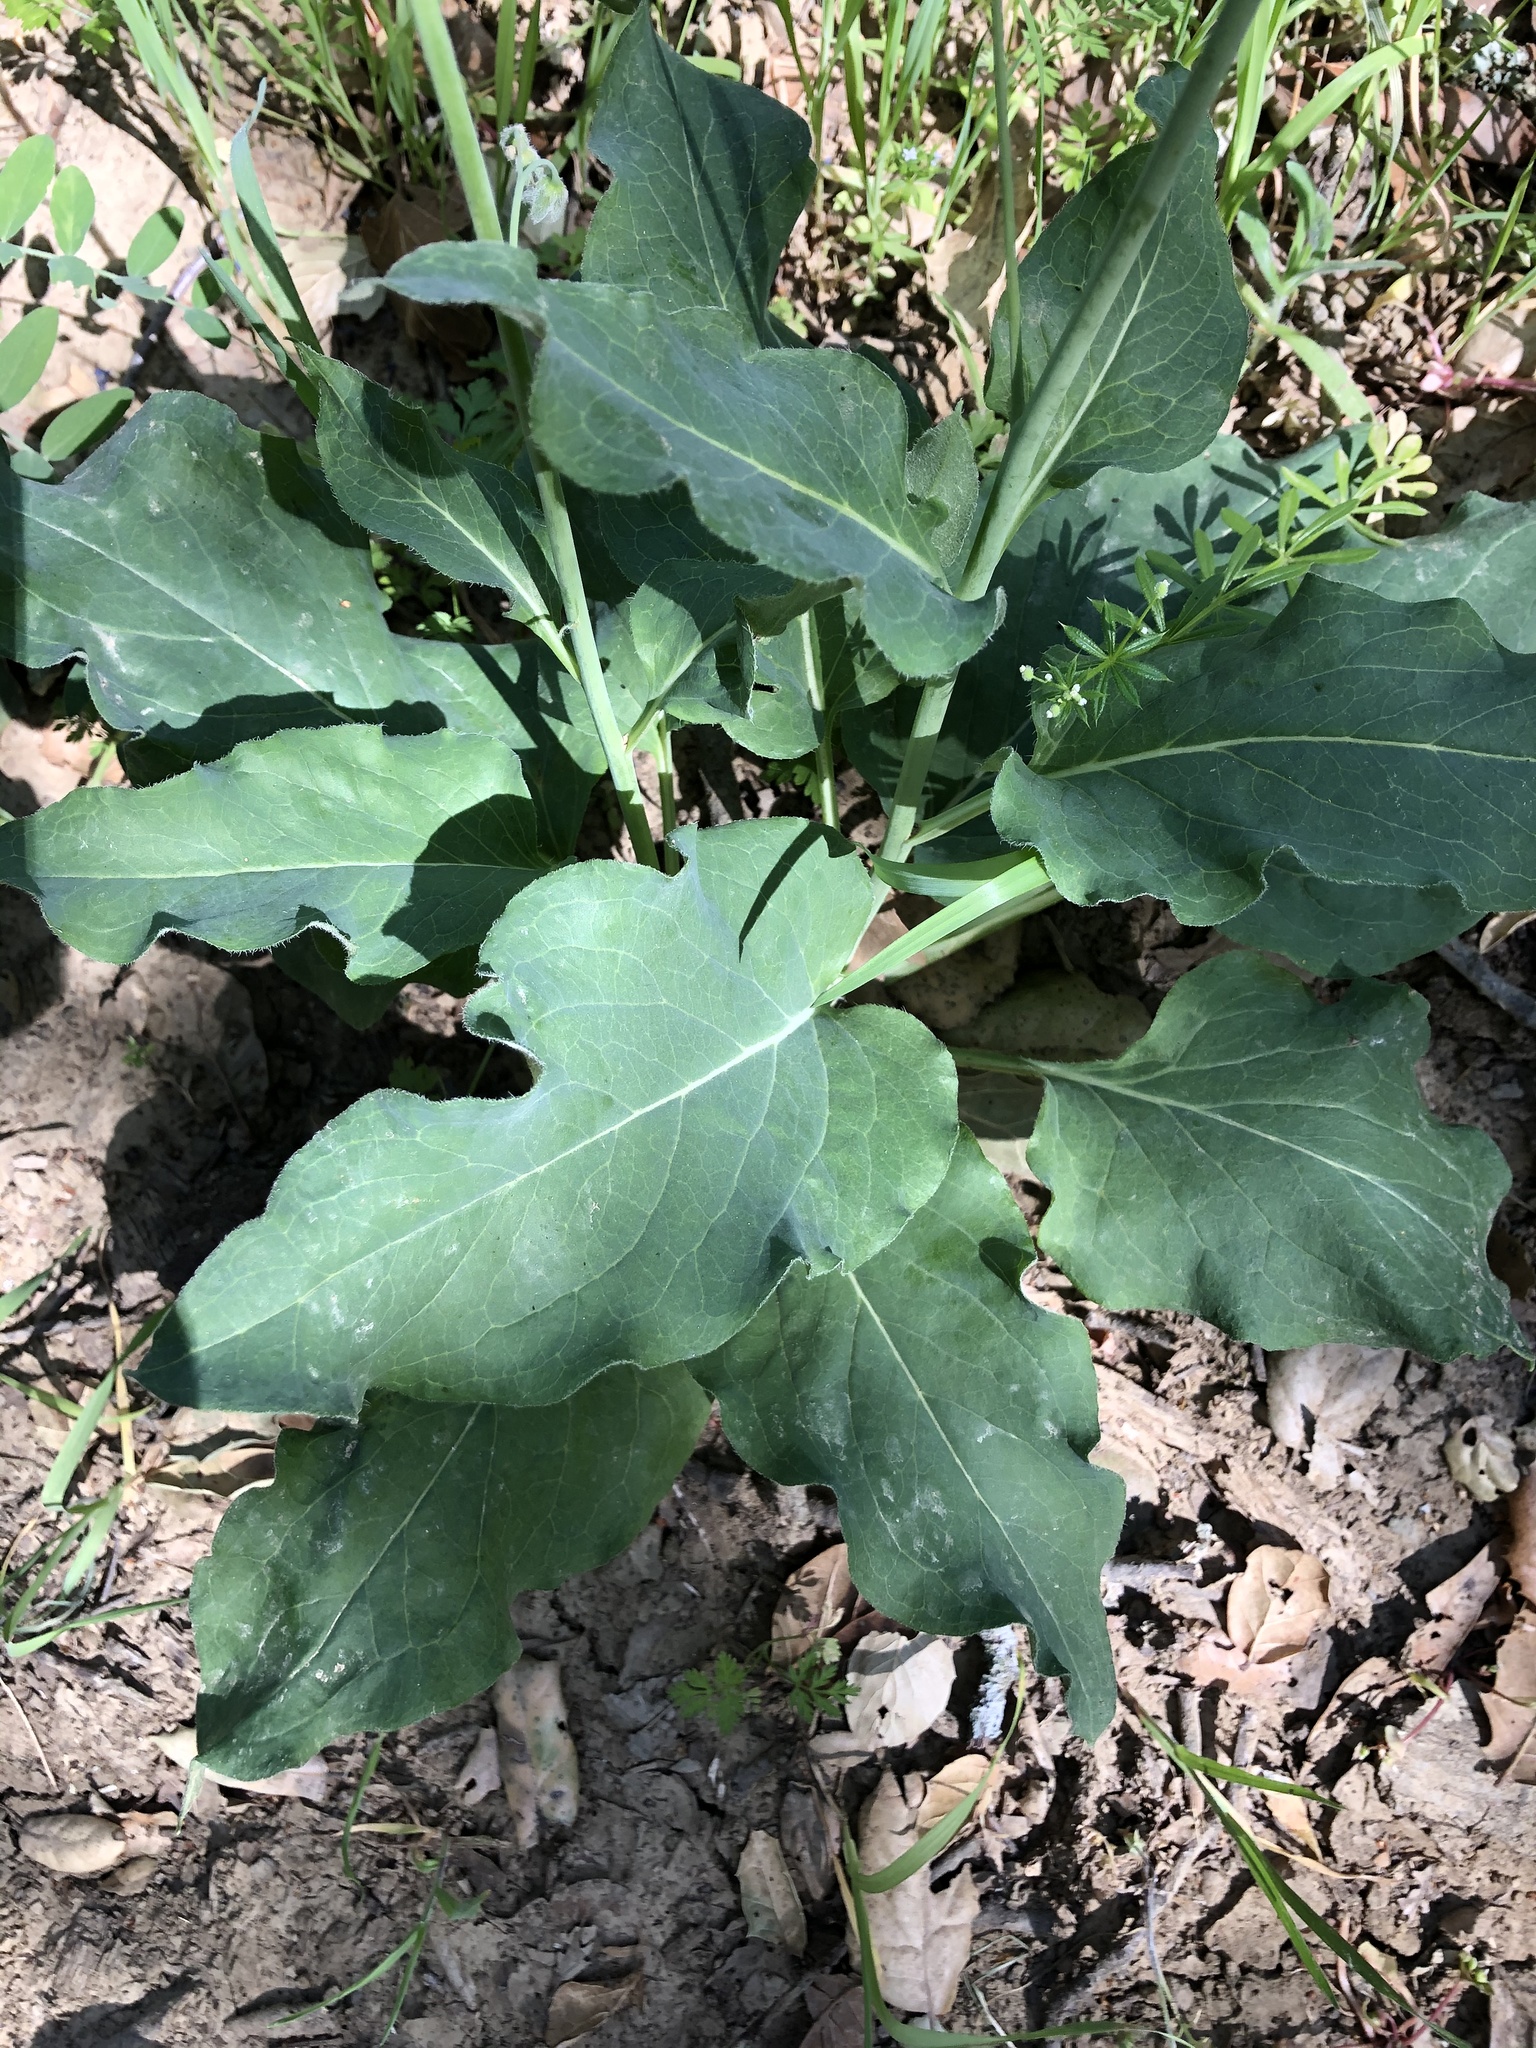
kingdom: Plantae
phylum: Tracheophyta
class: Magnoliopsida
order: Boraginales
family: Boraginaceae
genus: Adelinia
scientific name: Adelinia grande
